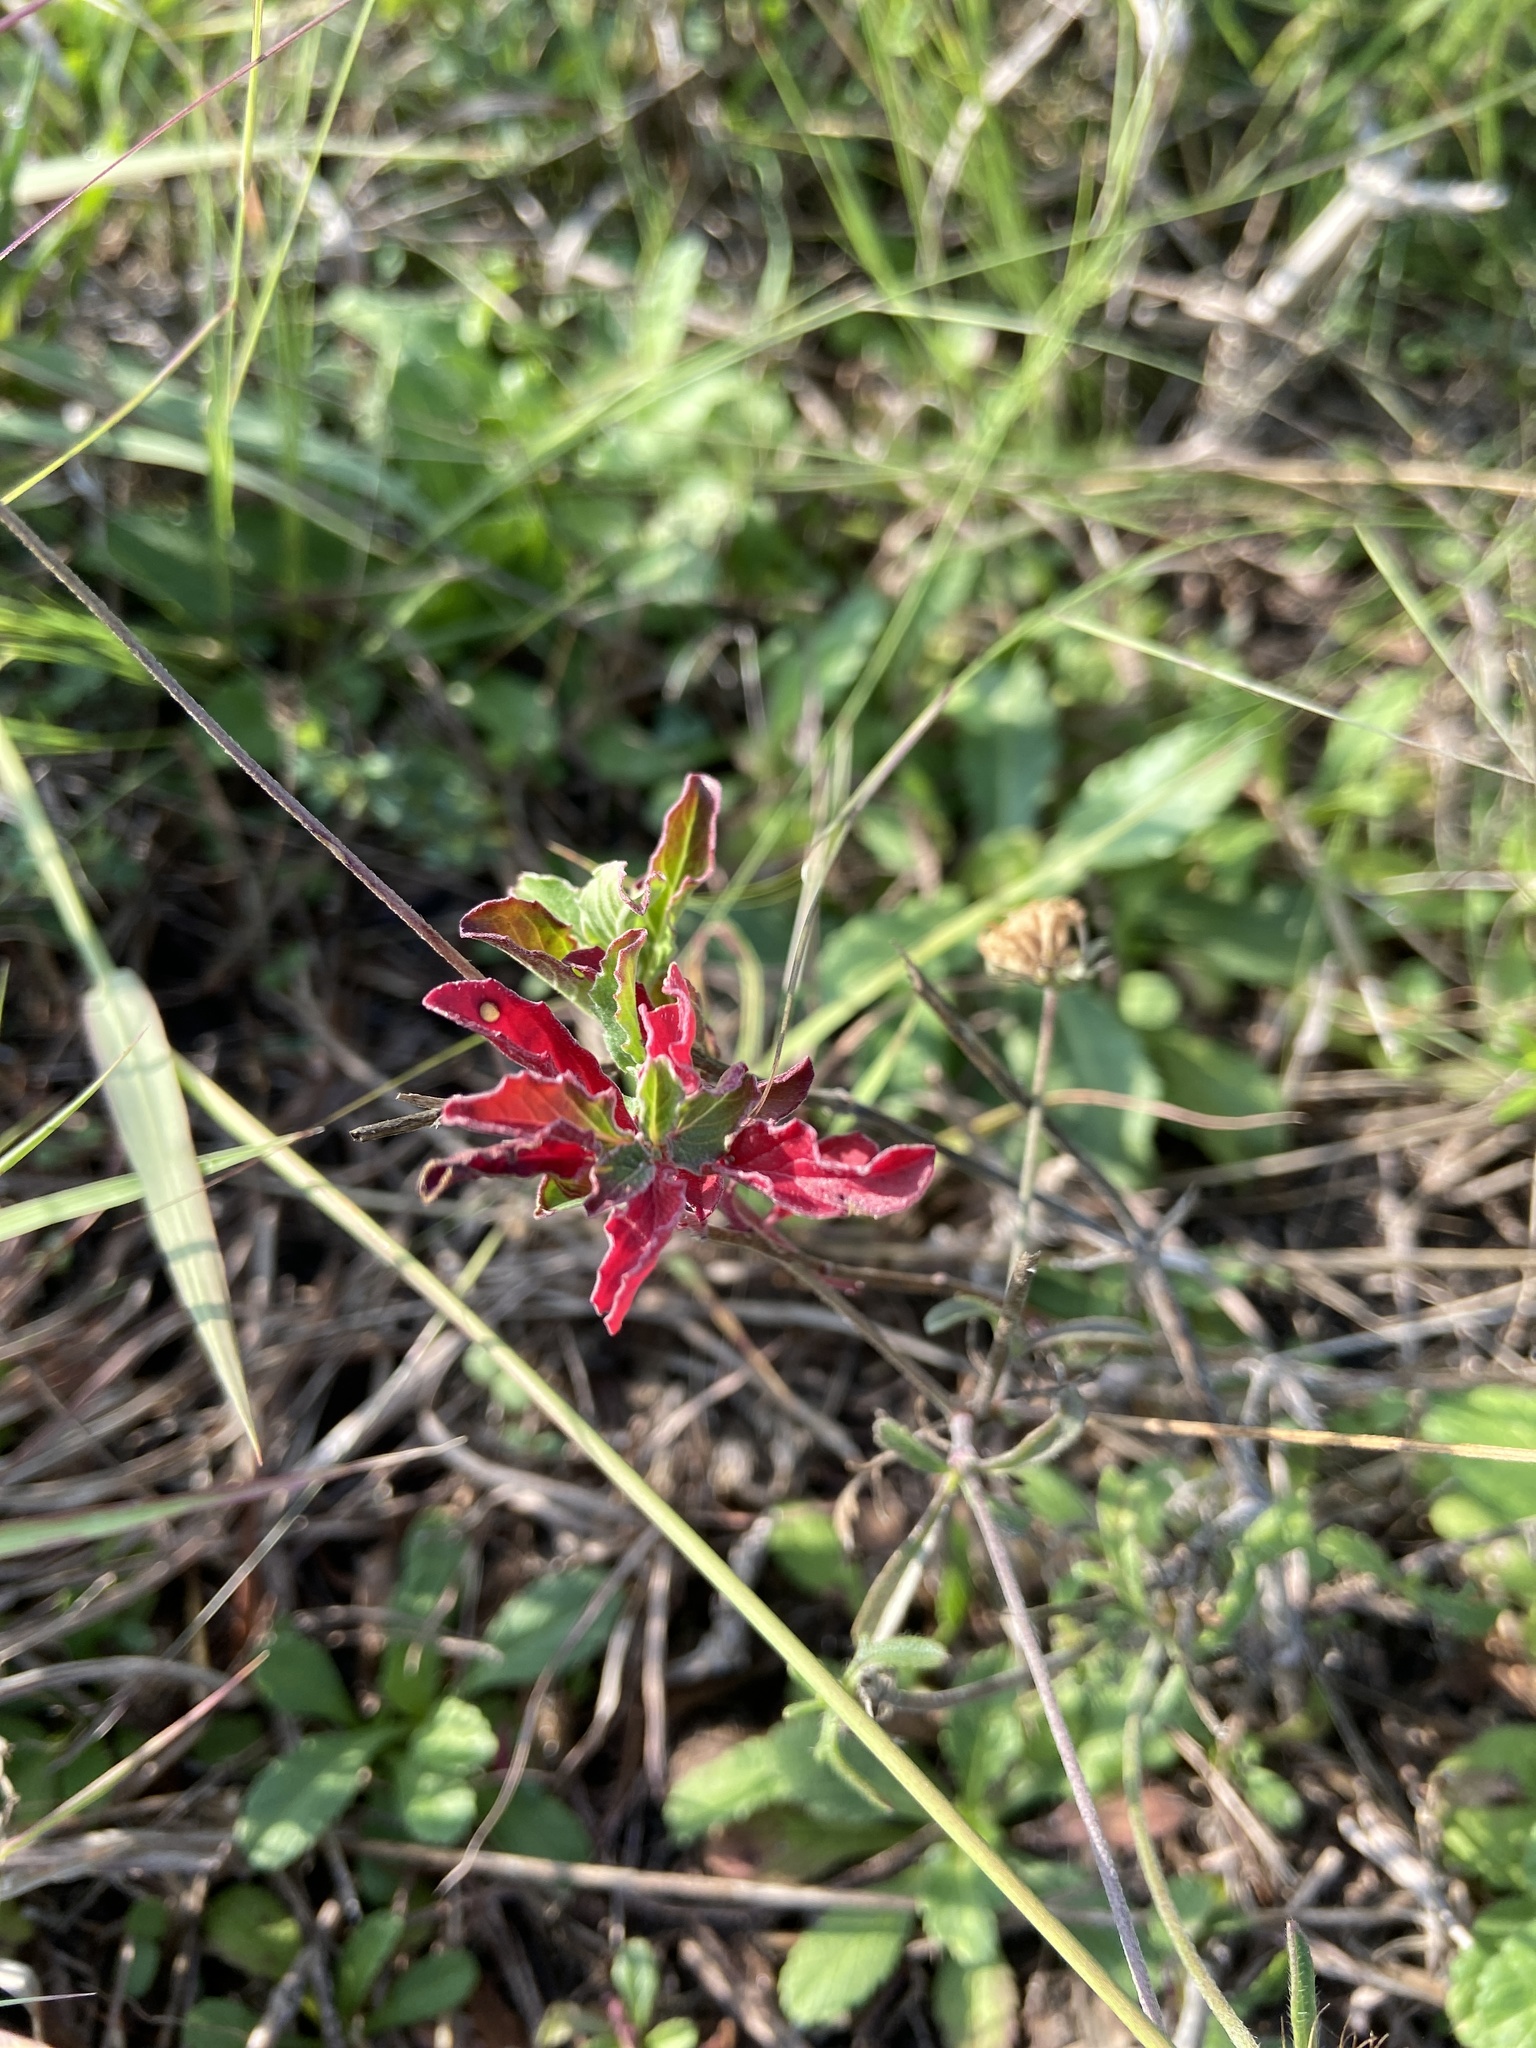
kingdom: Plantae
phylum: Tracheophyta
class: Magnoliopsida
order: Zygophyllales
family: Krameriaceae
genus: Krameria
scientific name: Krameria lanceolata
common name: Ratany
